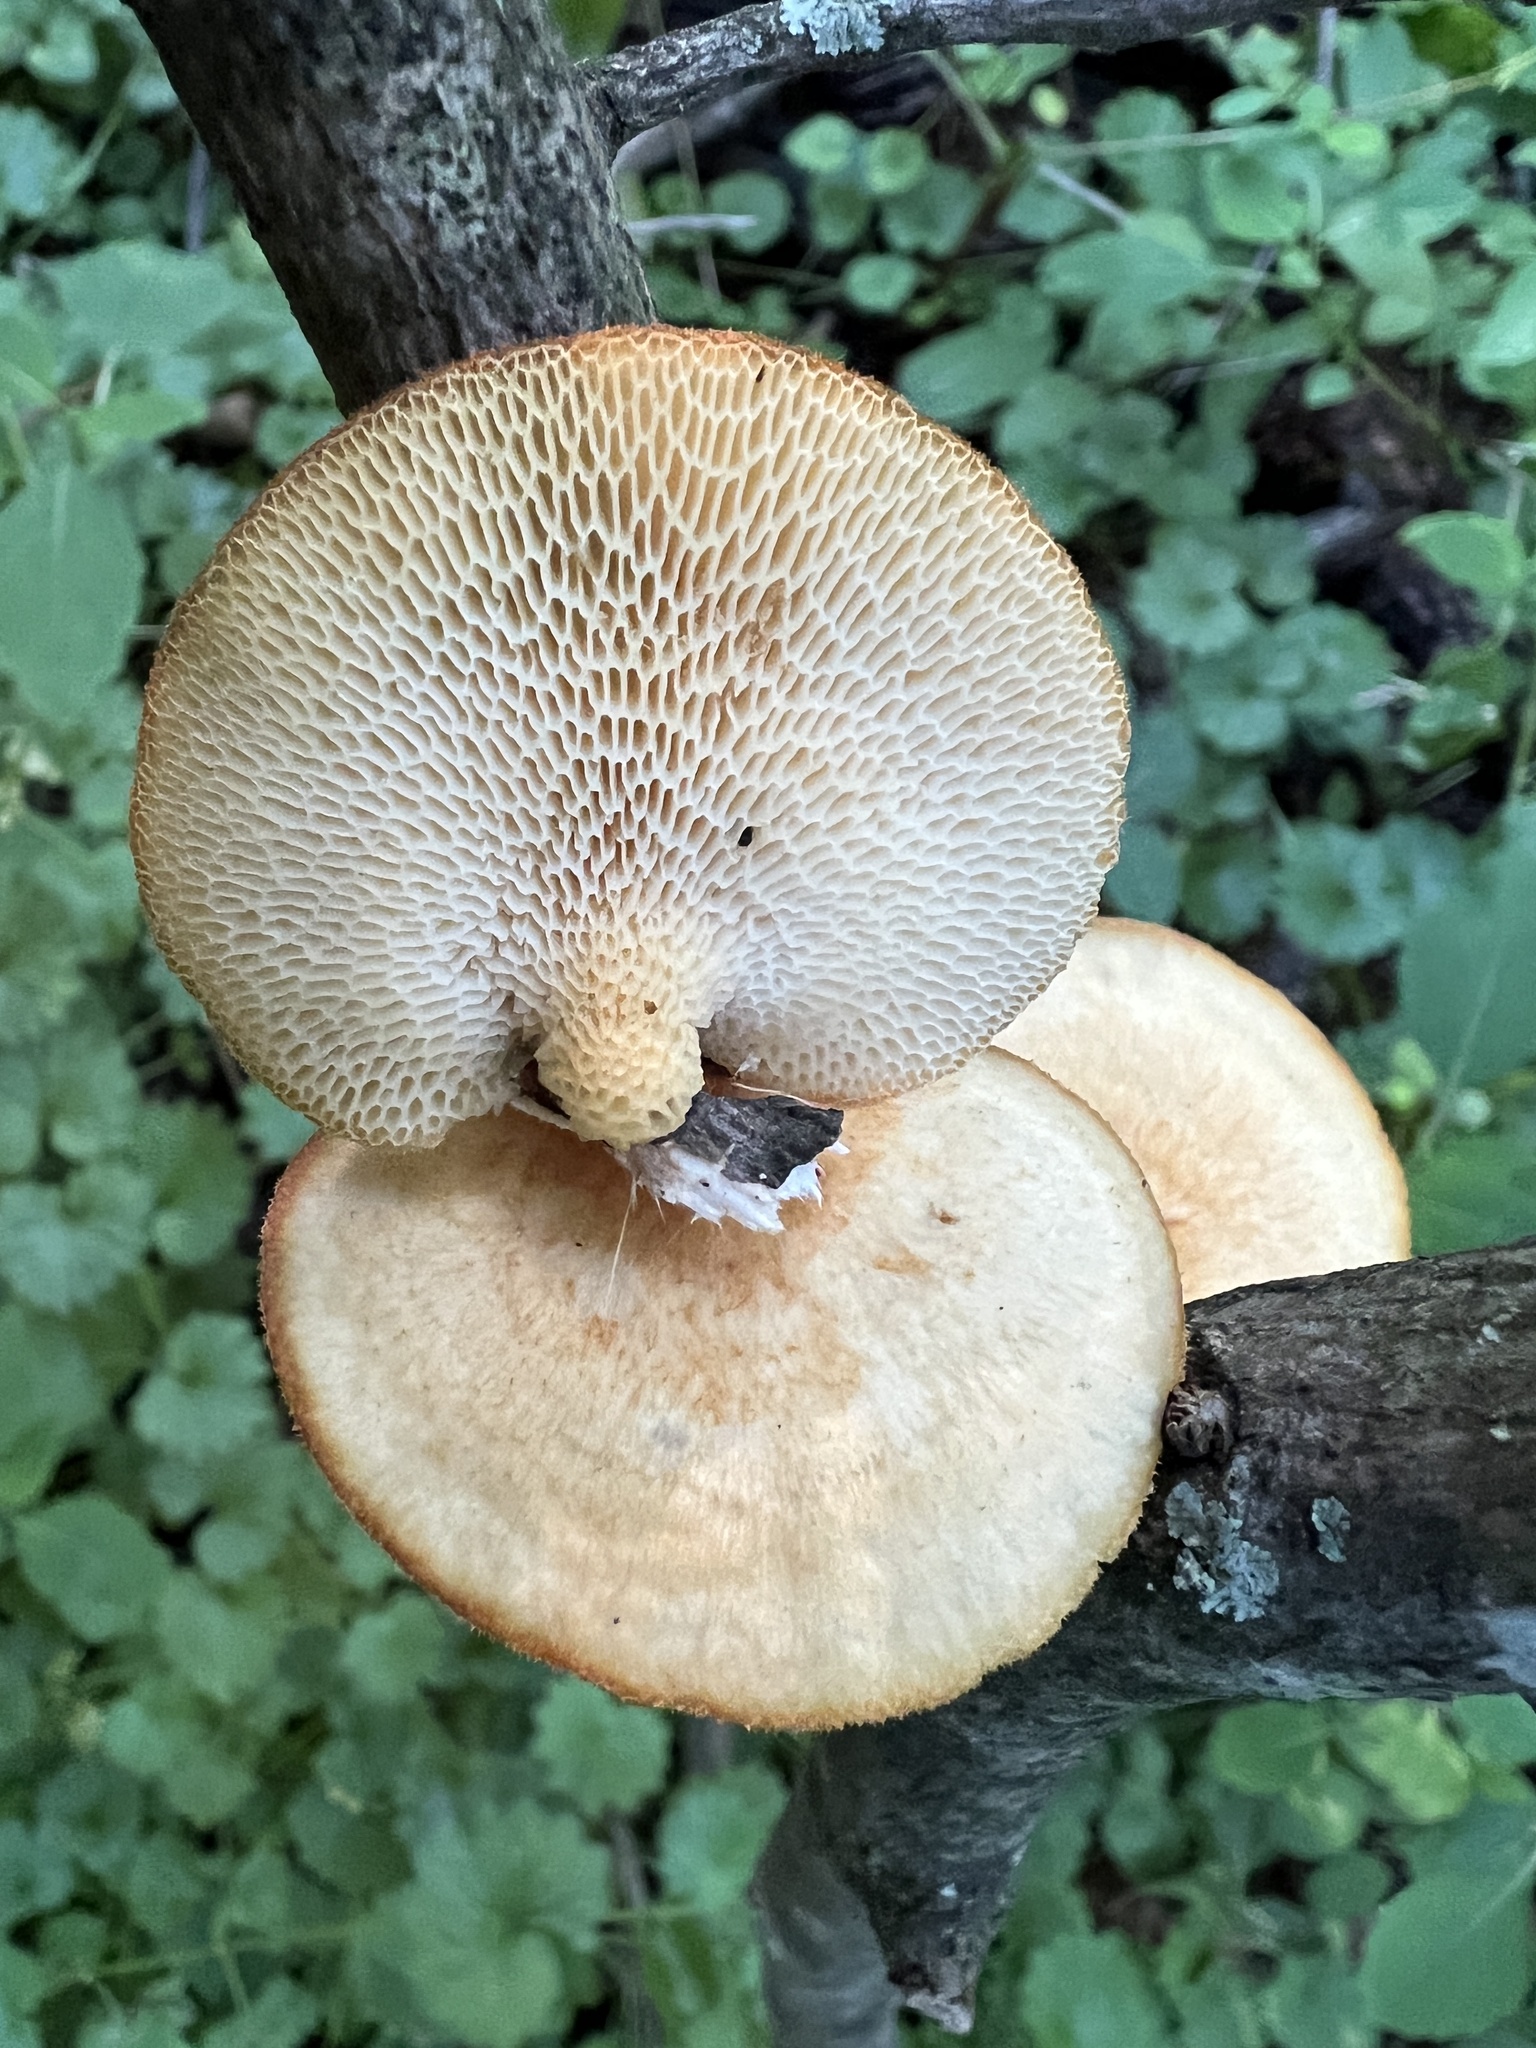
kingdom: Fungi
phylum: Basidiomycota
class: Agaricomycetes
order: Polyporales
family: Polyporaceae
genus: Neofavolus
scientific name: Neofavolus americanus
